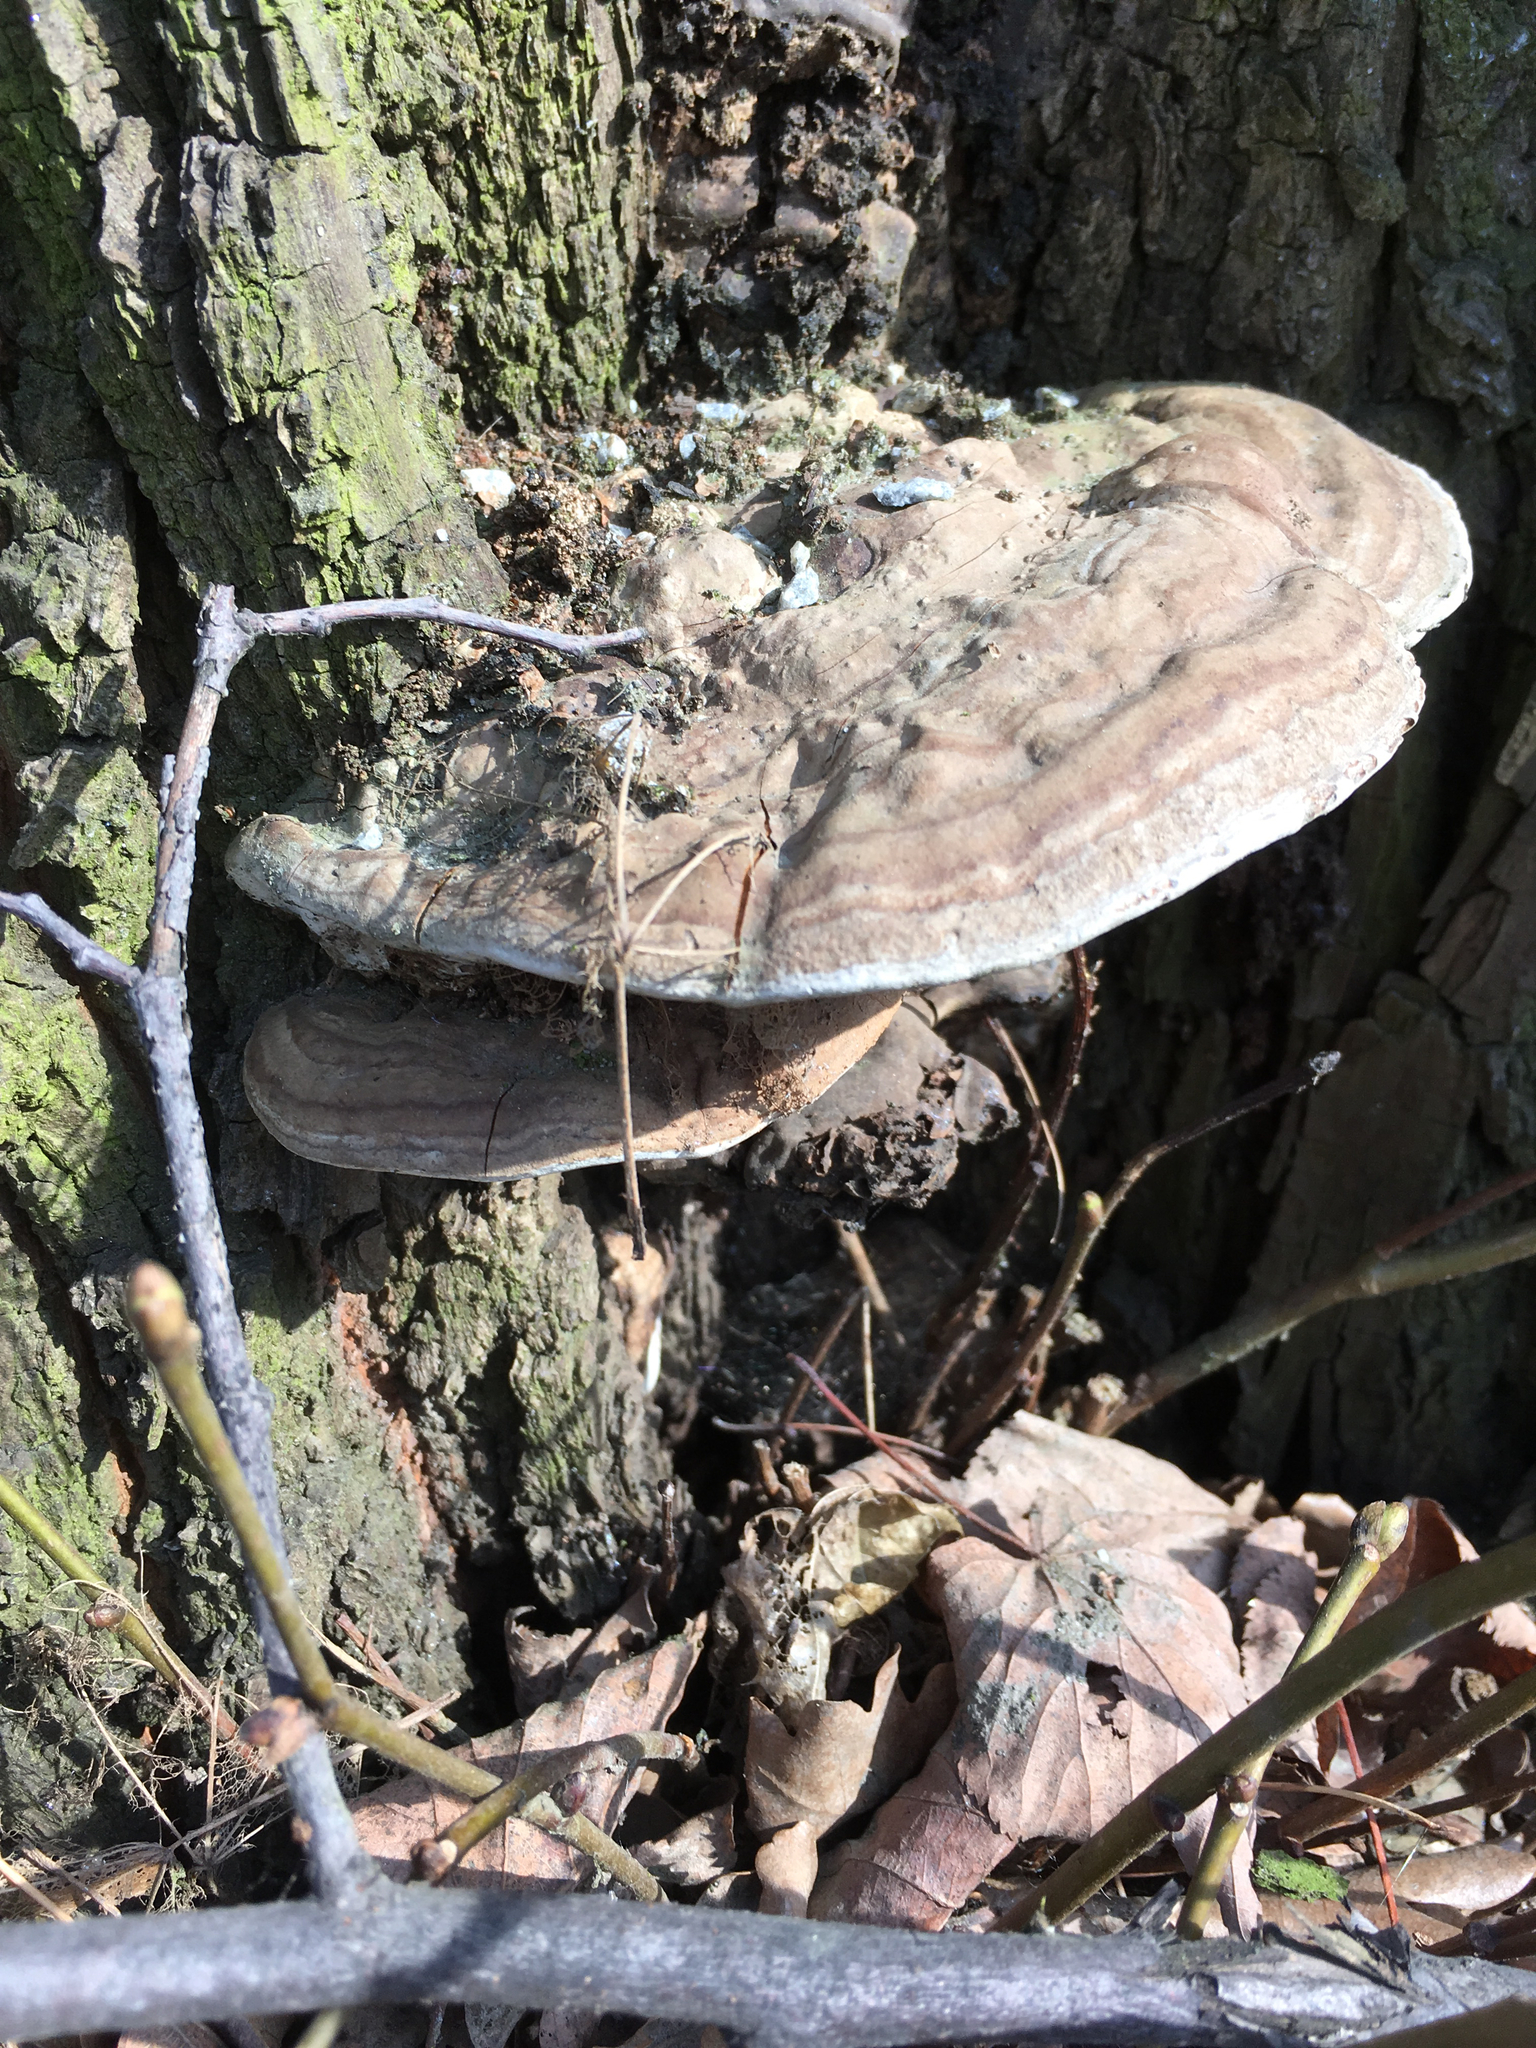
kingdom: Fungi
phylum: Basidiomycota
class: Agaricomycetes
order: Polyporales
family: Polyporaceae
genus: Ganoderma
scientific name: Ganoderma applanatum
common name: Artist's bracket
